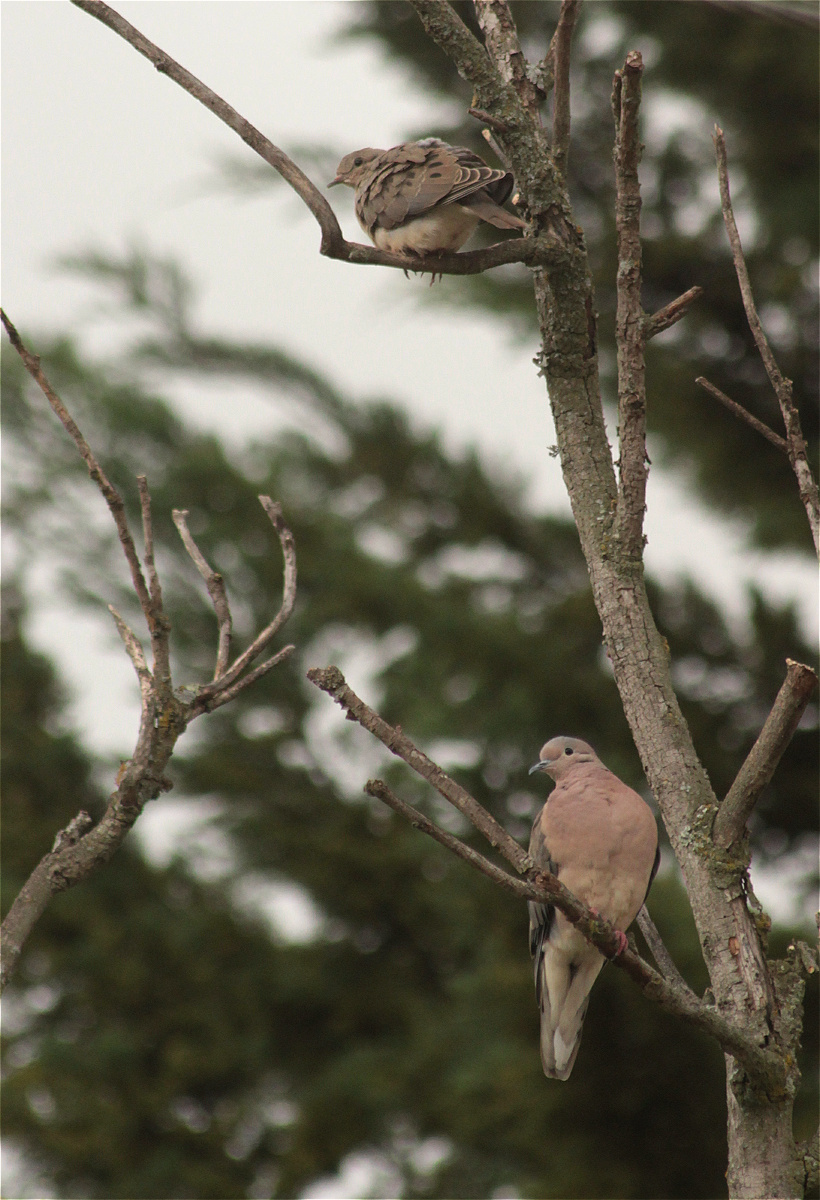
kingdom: Animalia
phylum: Chordata
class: Aves
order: Columbiformes
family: Columbidae
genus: Zenaida
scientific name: Zenaida auriculata
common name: Eared dove
